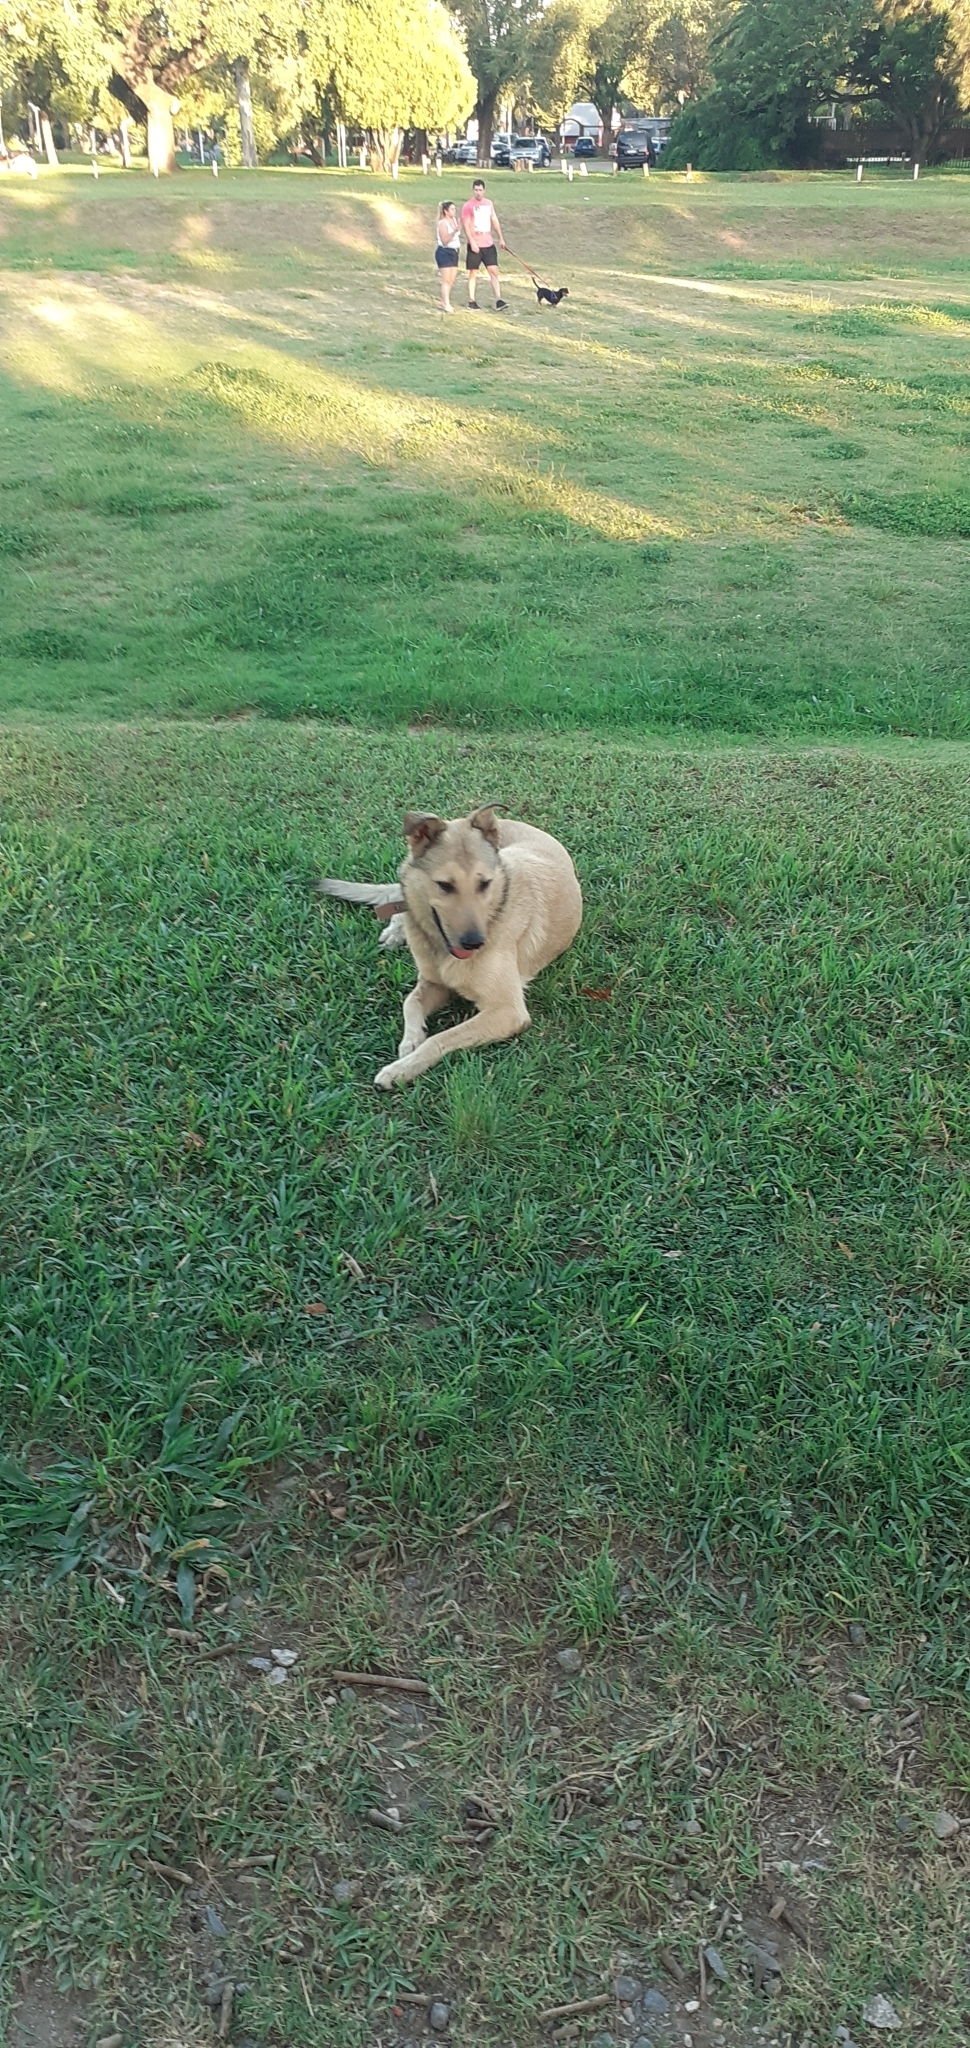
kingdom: Animalia
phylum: Chordata
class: Mammalia
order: Carnivora
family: Canidae
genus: Canis
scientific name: Canis lupus
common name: Gray wolf
